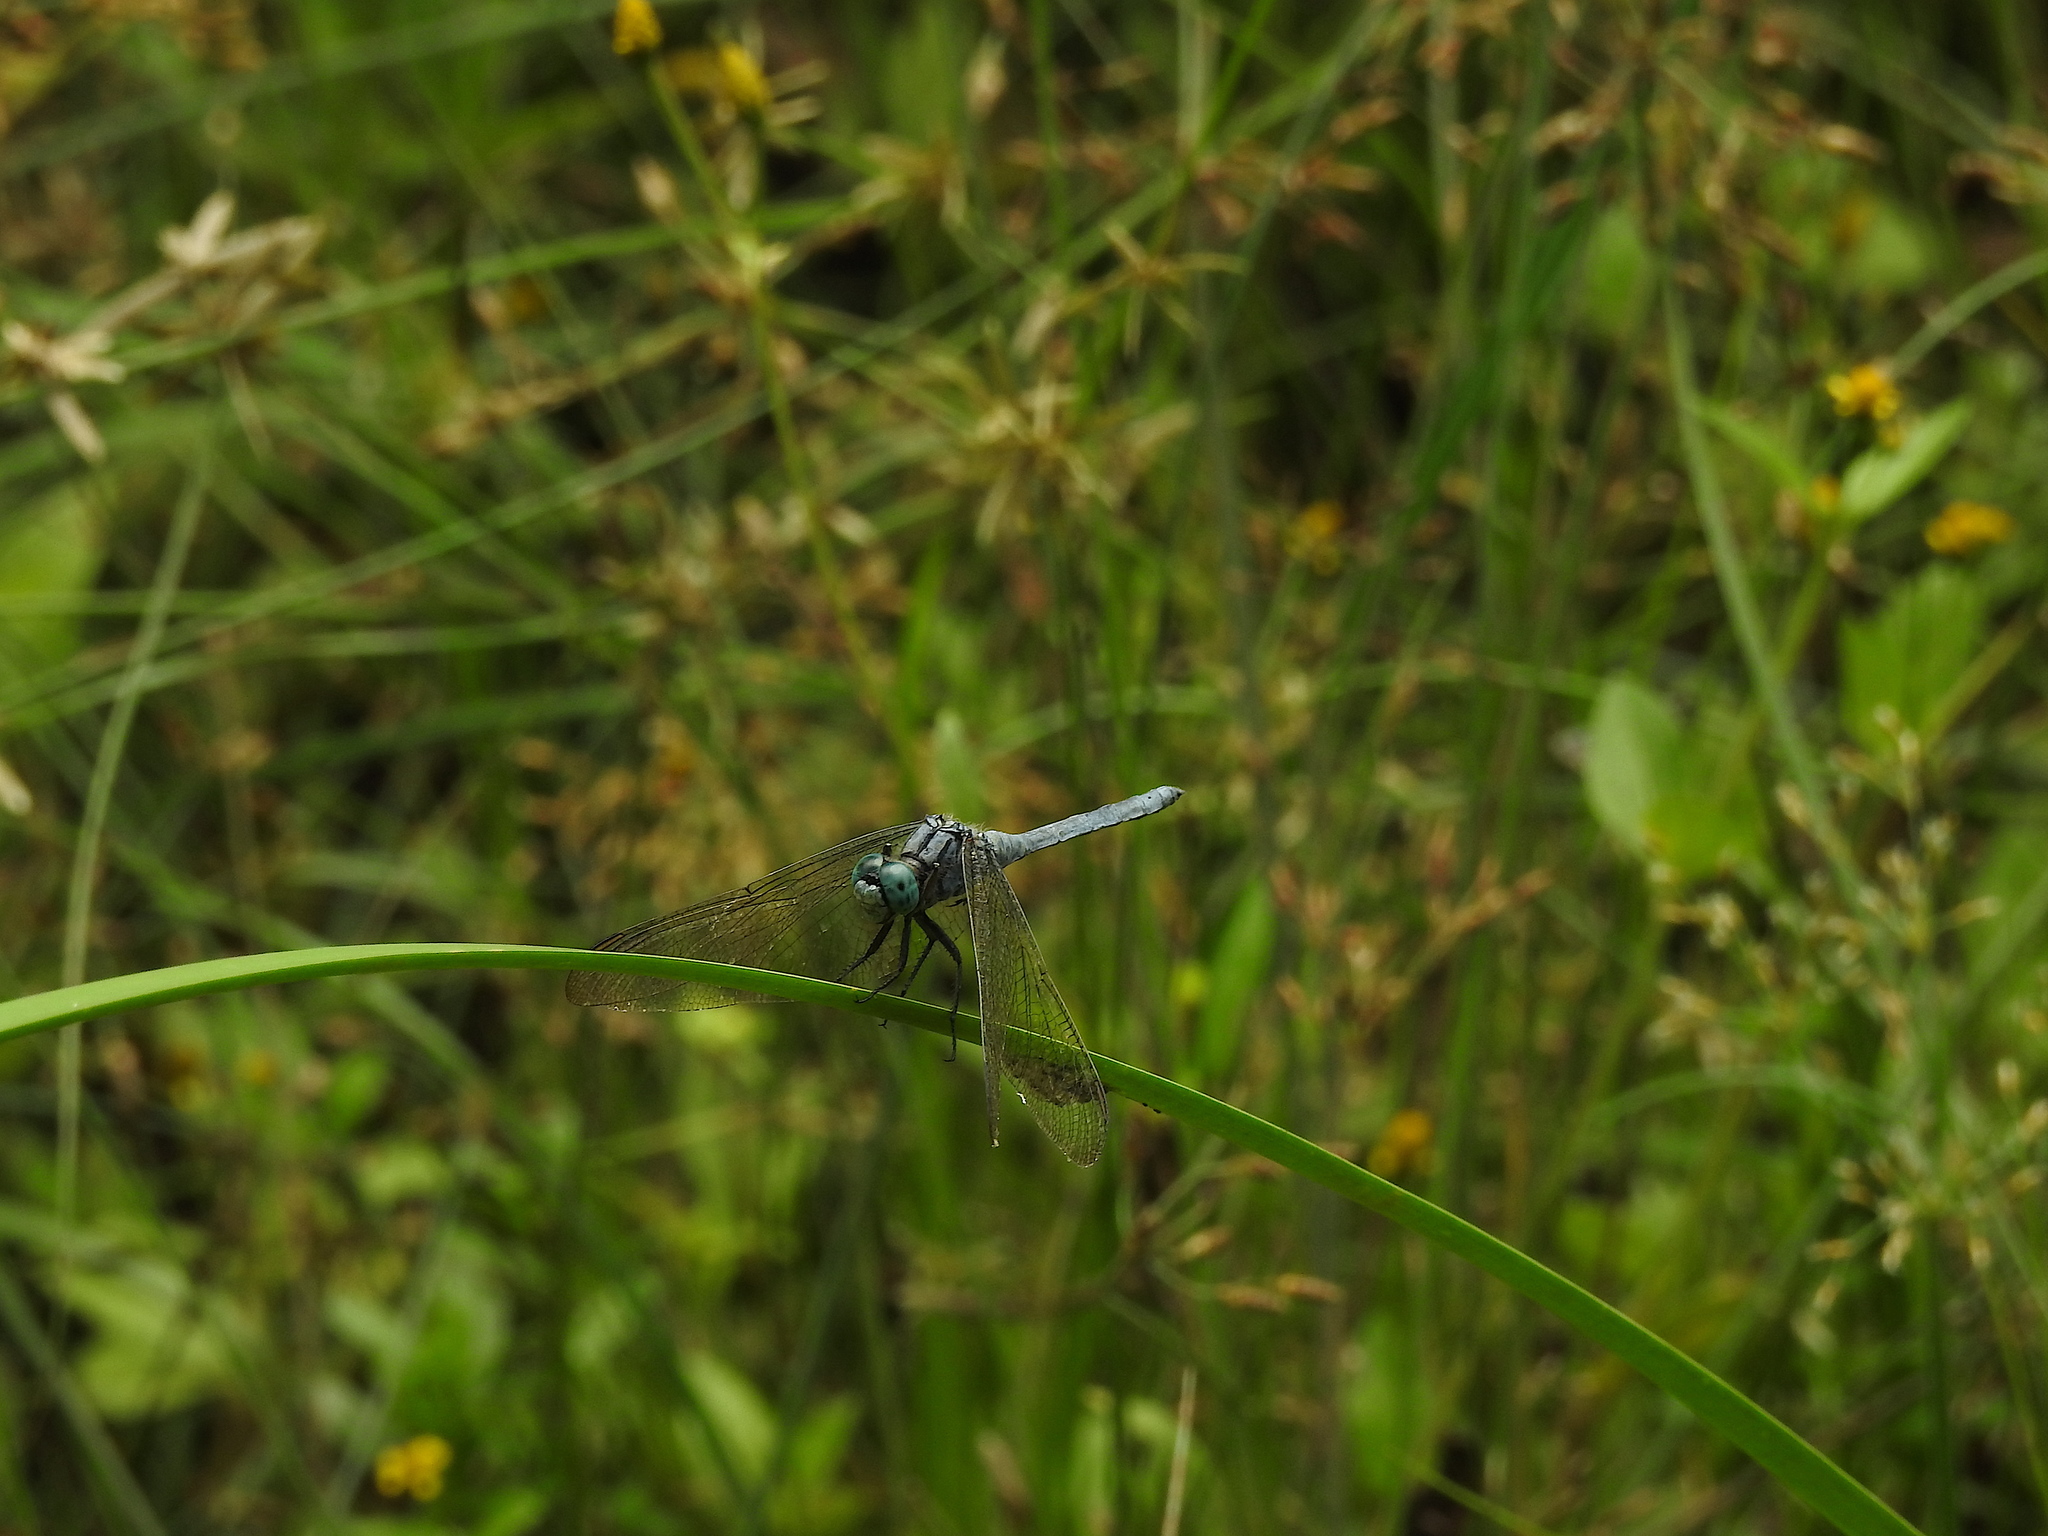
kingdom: Animalia
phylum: Arthropoda
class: Insecta
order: Odonata
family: Libellulidae
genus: Orthetrum
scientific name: Orthetrum luzonicum
